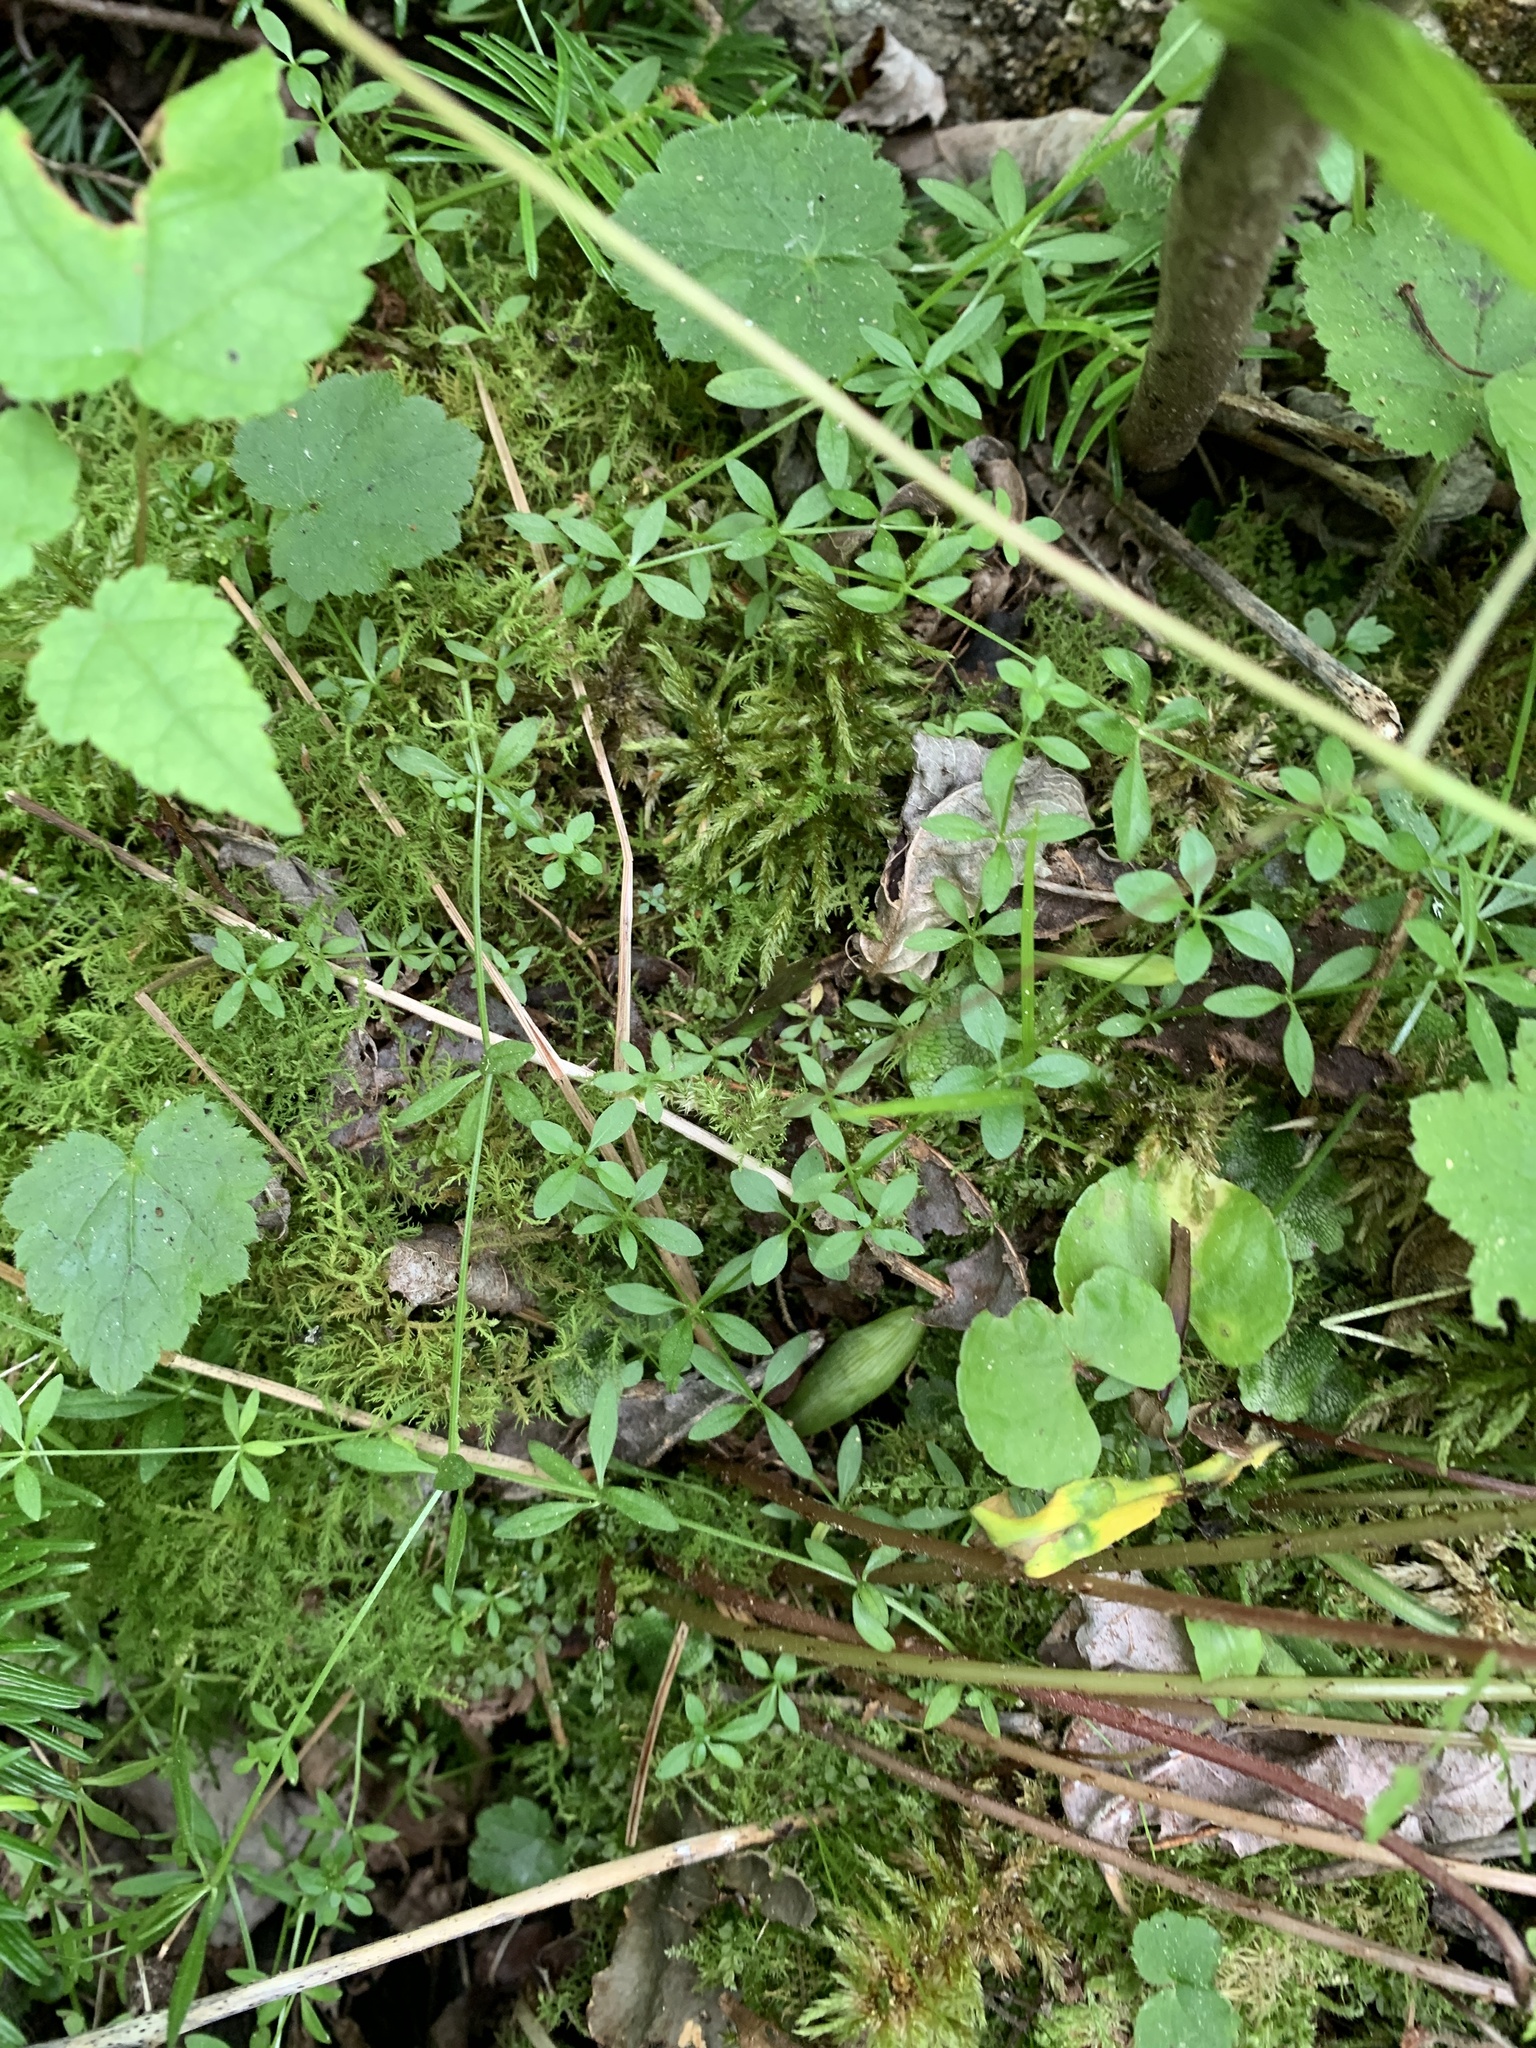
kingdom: Plantae
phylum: Tracheophyta
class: Magnoliopsida
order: Gentianales
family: Rubiaceae
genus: Galium
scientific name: Galium palustre
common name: Common marsh-bedstraw
